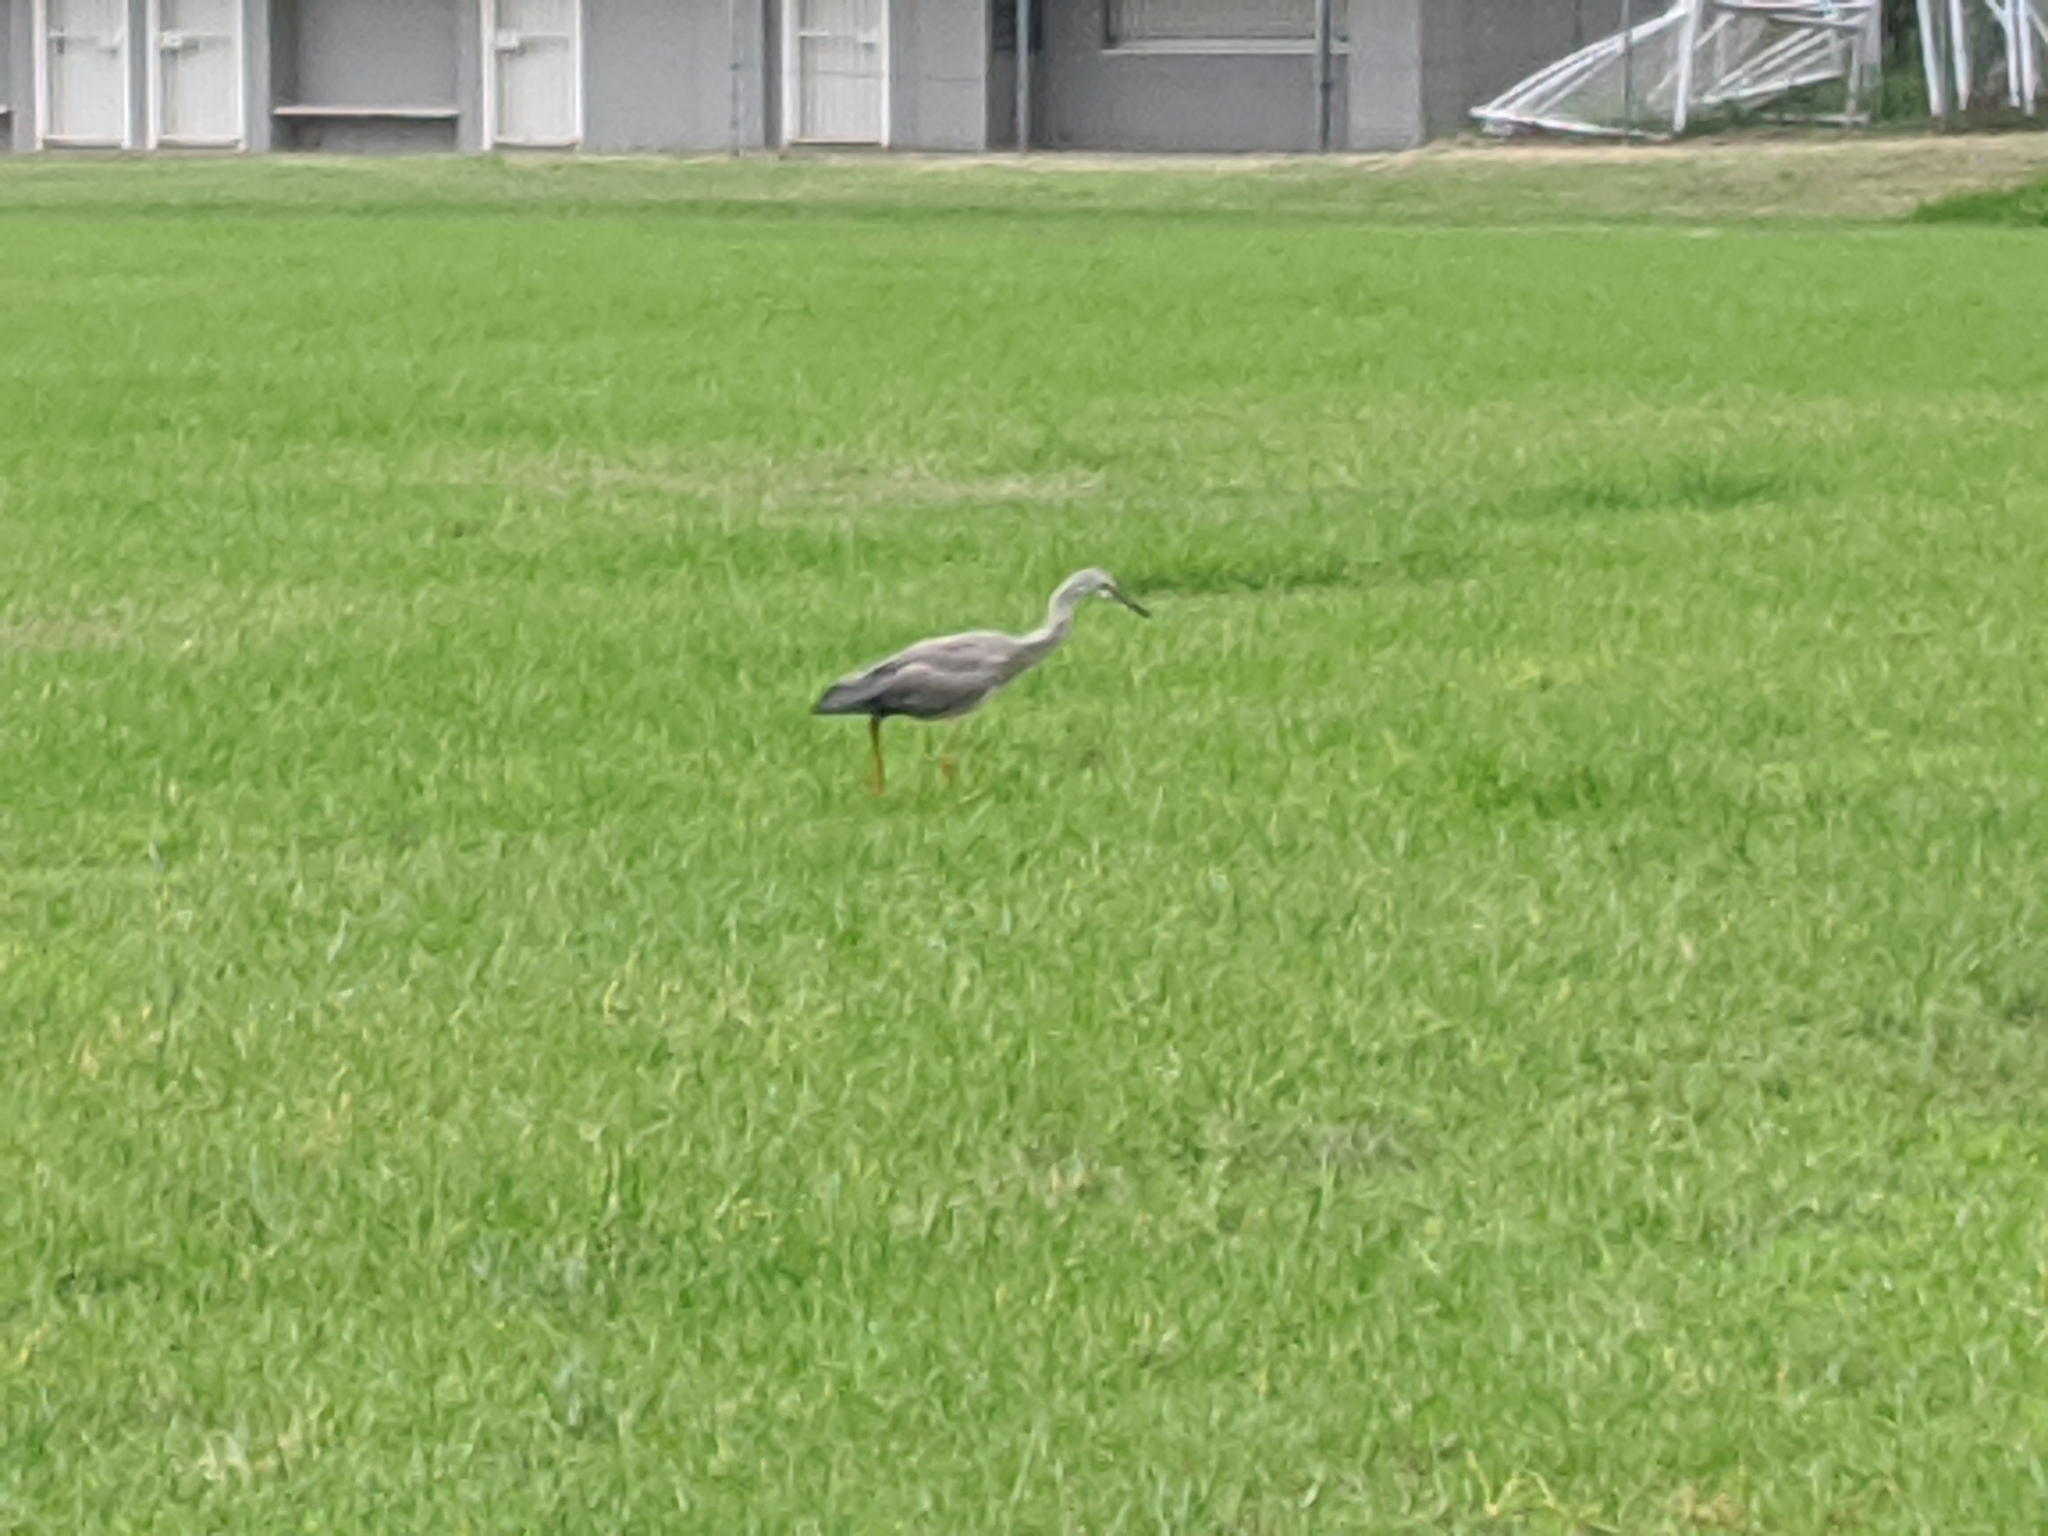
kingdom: Animalia
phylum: Chordata
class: Aves
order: Pelecaniformes
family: Ardeidae
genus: Egretta
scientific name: Egretta novaehollandiae
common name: White-faced heron
